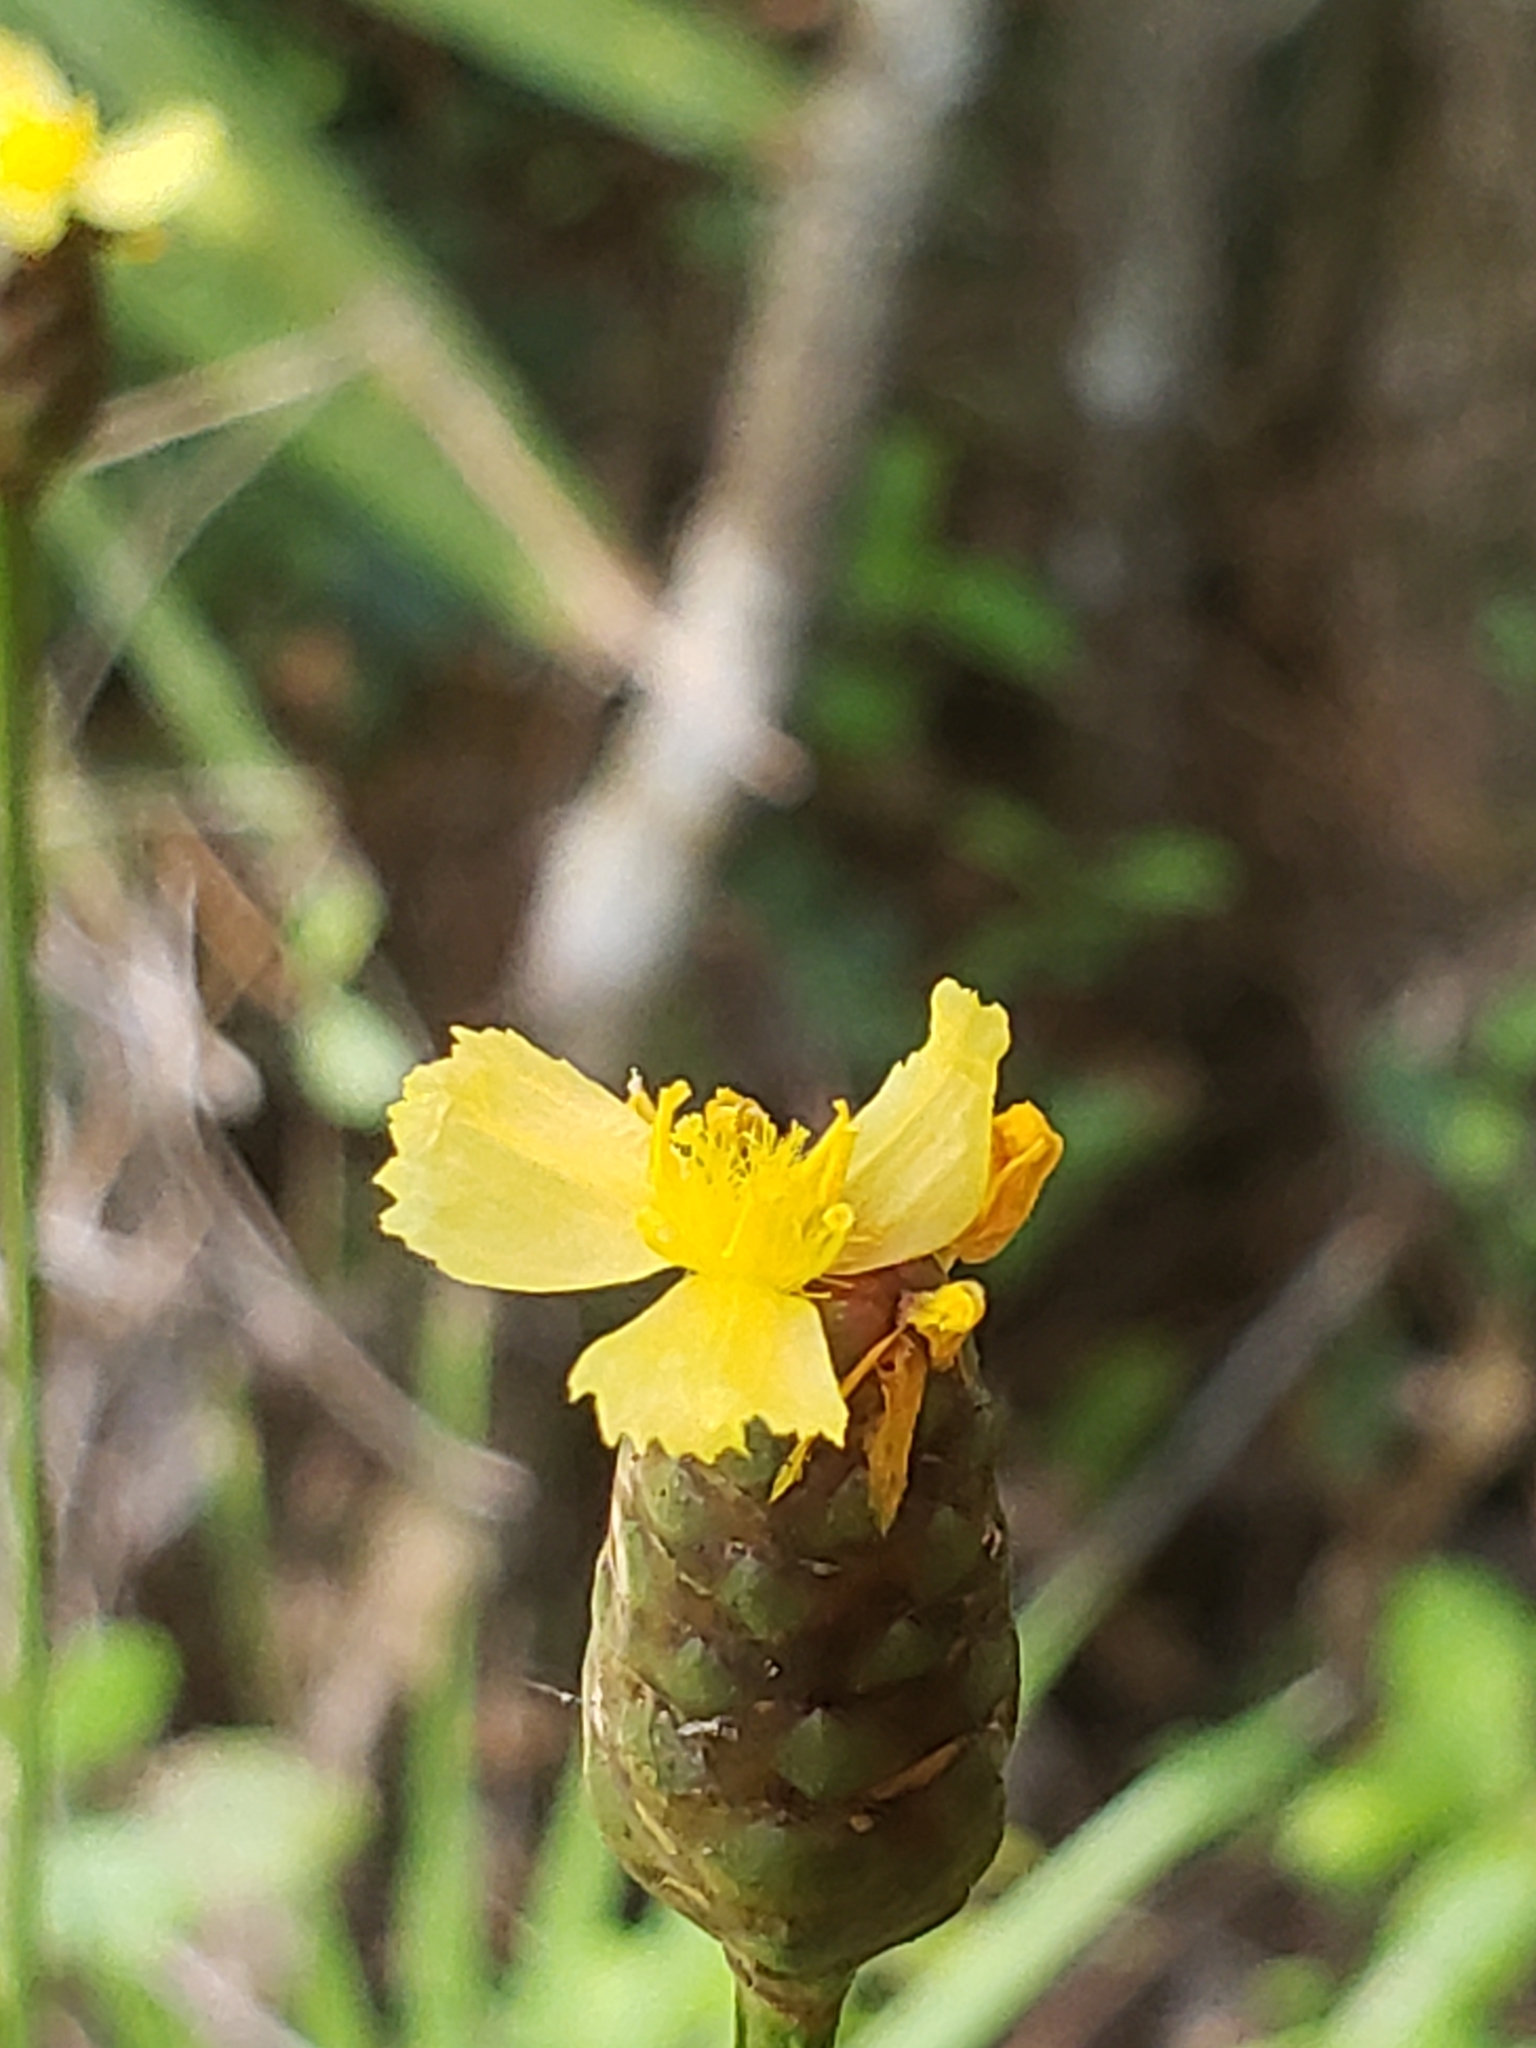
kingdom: Plantae
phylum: Tracheophyta
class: Liliopsida
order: Poales
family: Xyridaceae
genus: Xyris
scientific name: Xyris platylepis
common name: Tall yelloweyed grass
